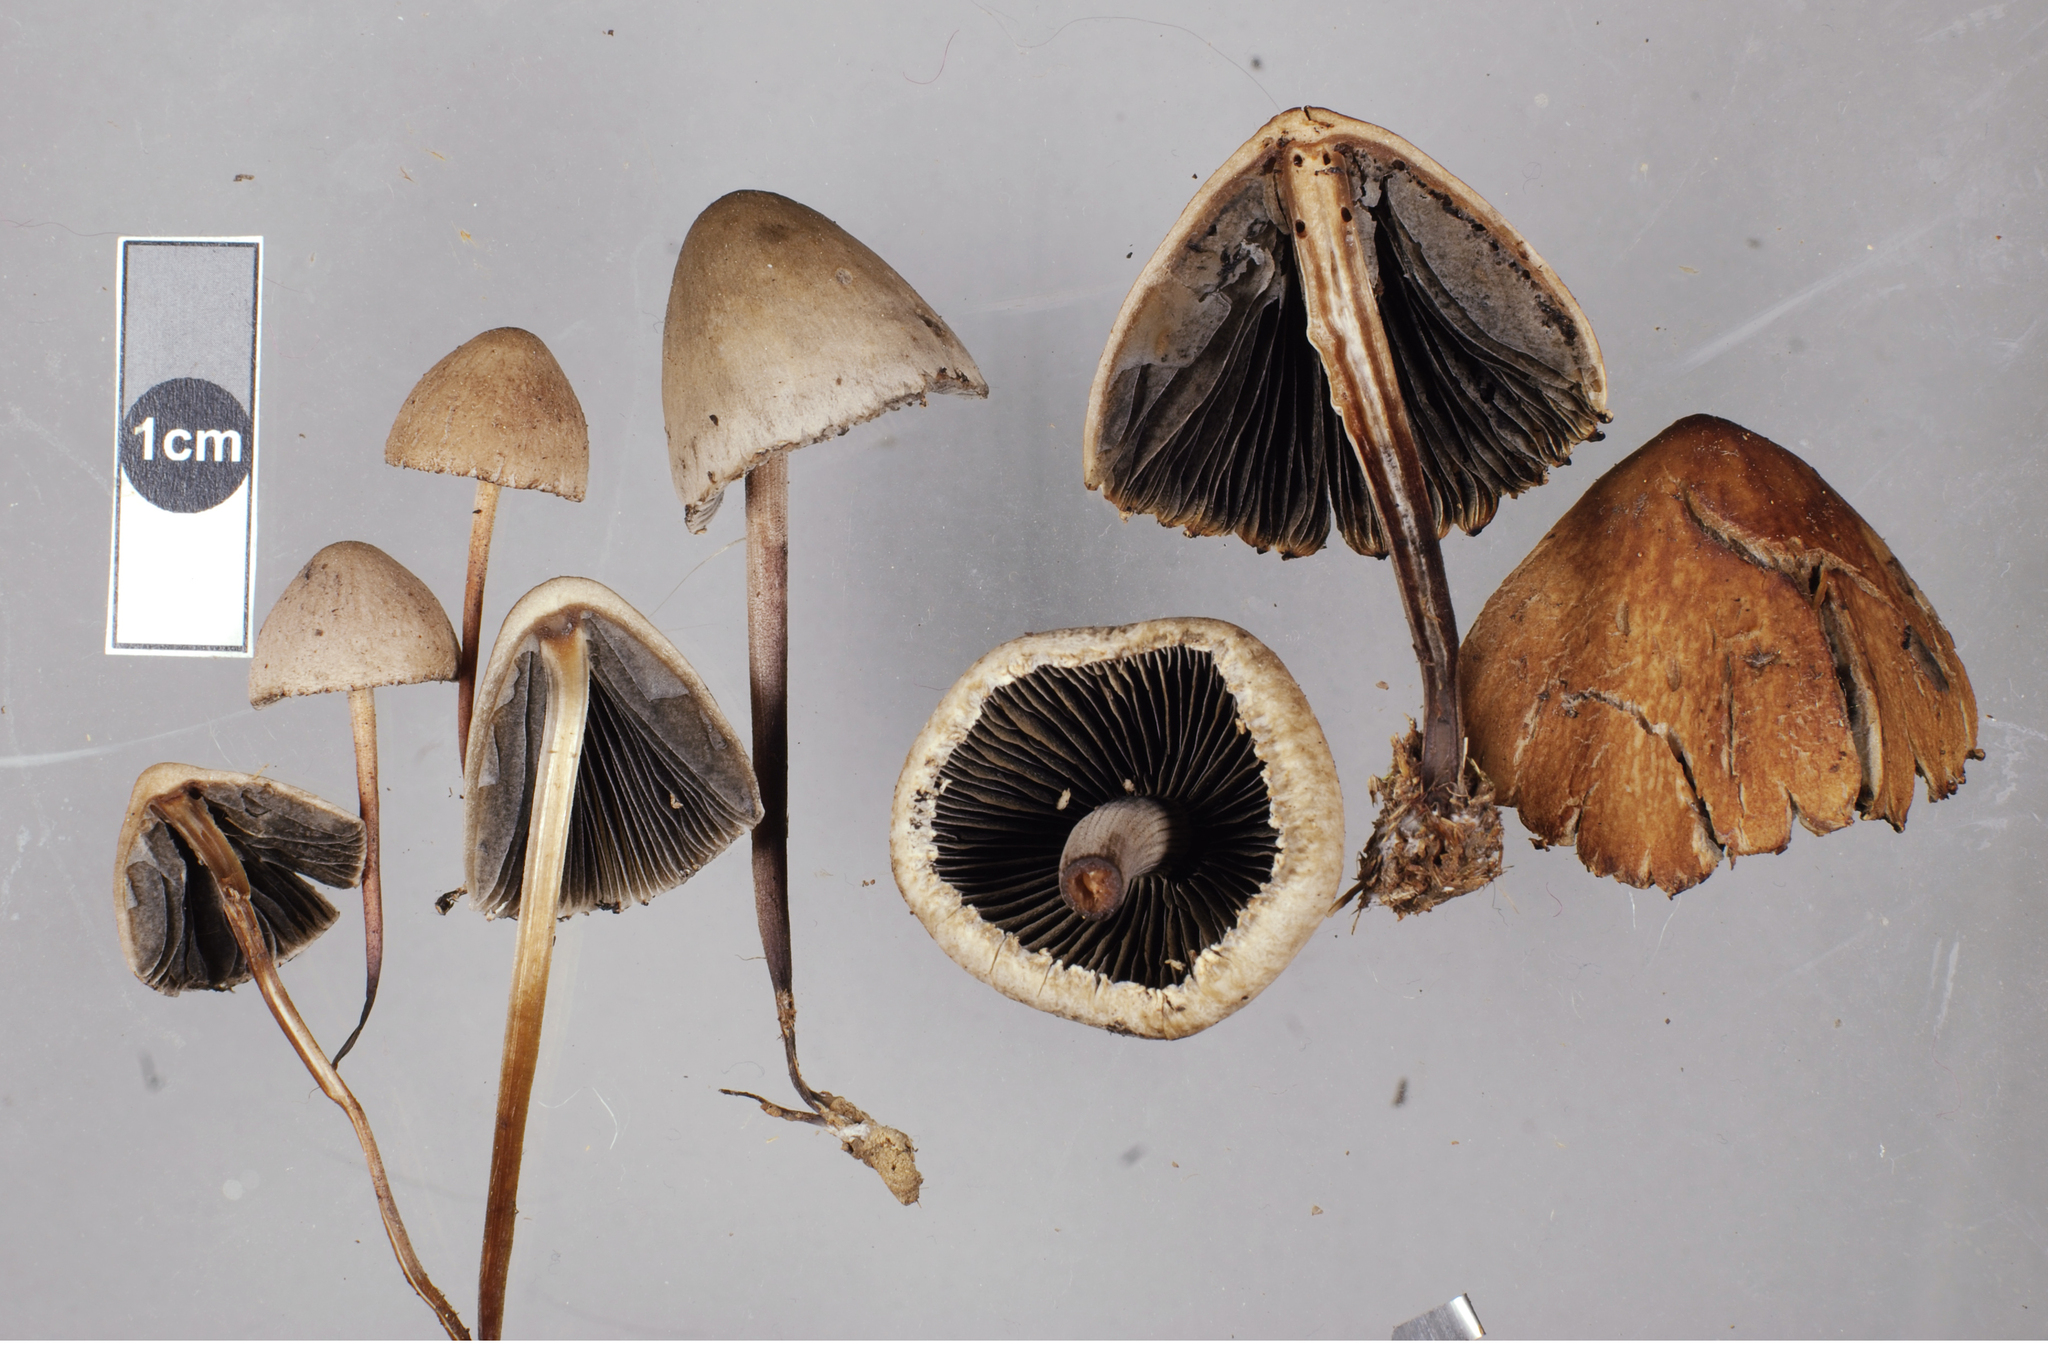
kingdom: Fungi
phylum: Basidiomycota
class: Agaricomycetes
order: Agaricales
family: Bolbitiaceae
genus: Panaeolus
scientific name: Panaeolus papilionaceus
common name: Petticoat mottlegill
